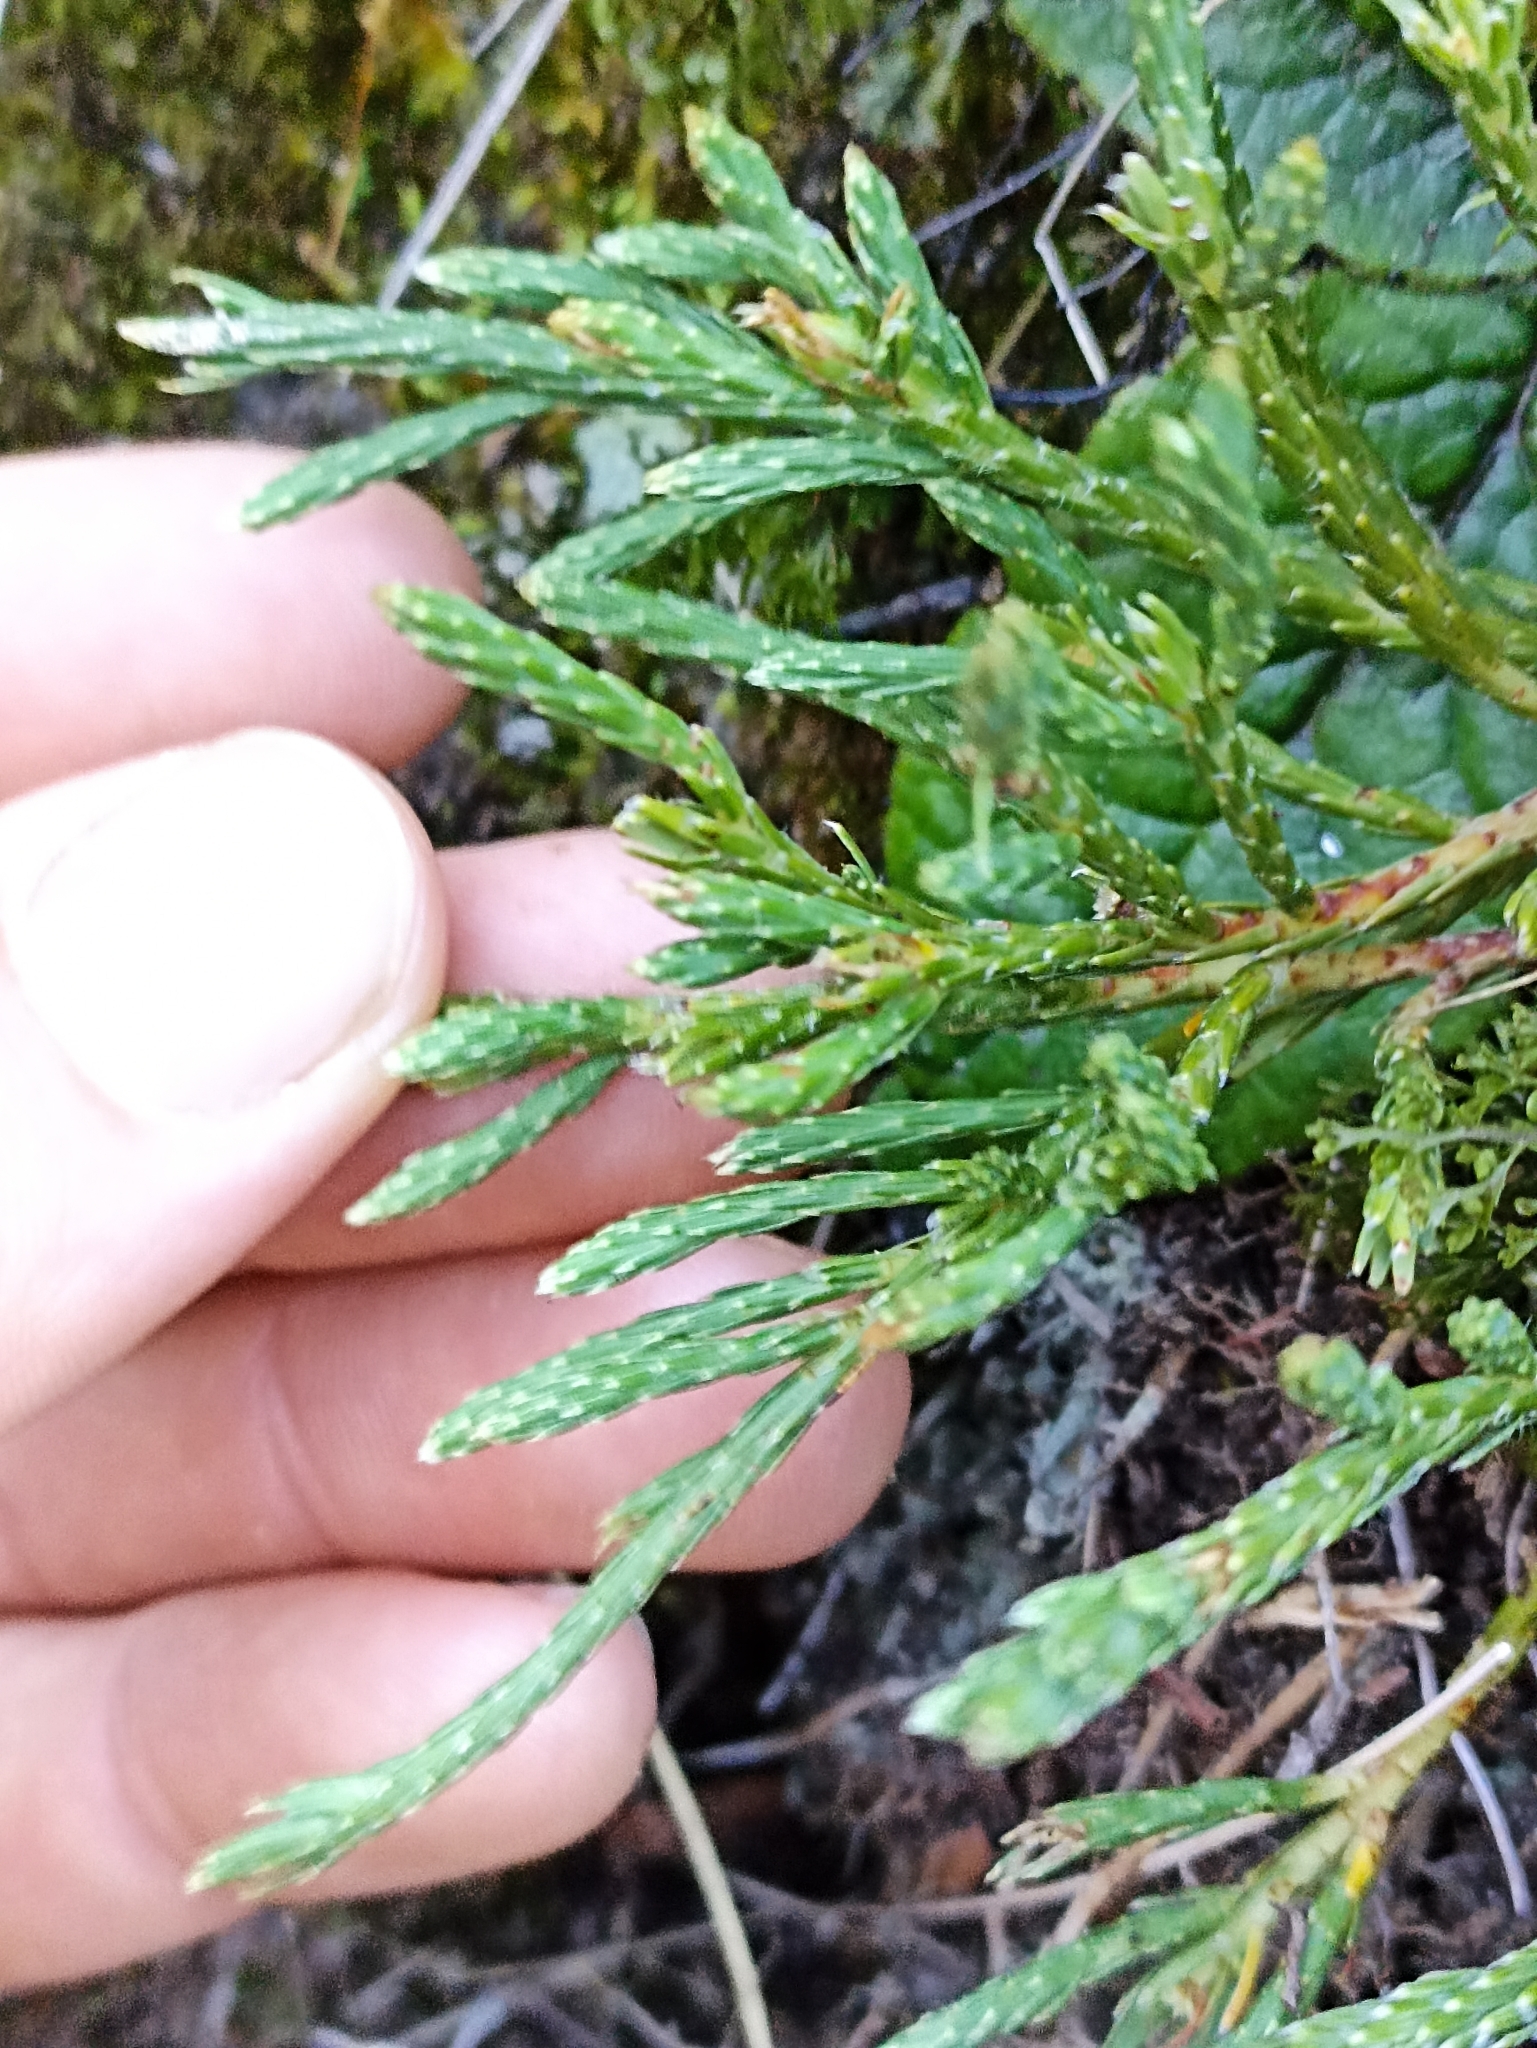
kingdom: Plantae
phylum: Tracheophyta
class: Magnoliopsida
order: Malvales
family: Thymelaeaceae
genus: Kelleria
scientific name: Kelleria dieffenbachii
